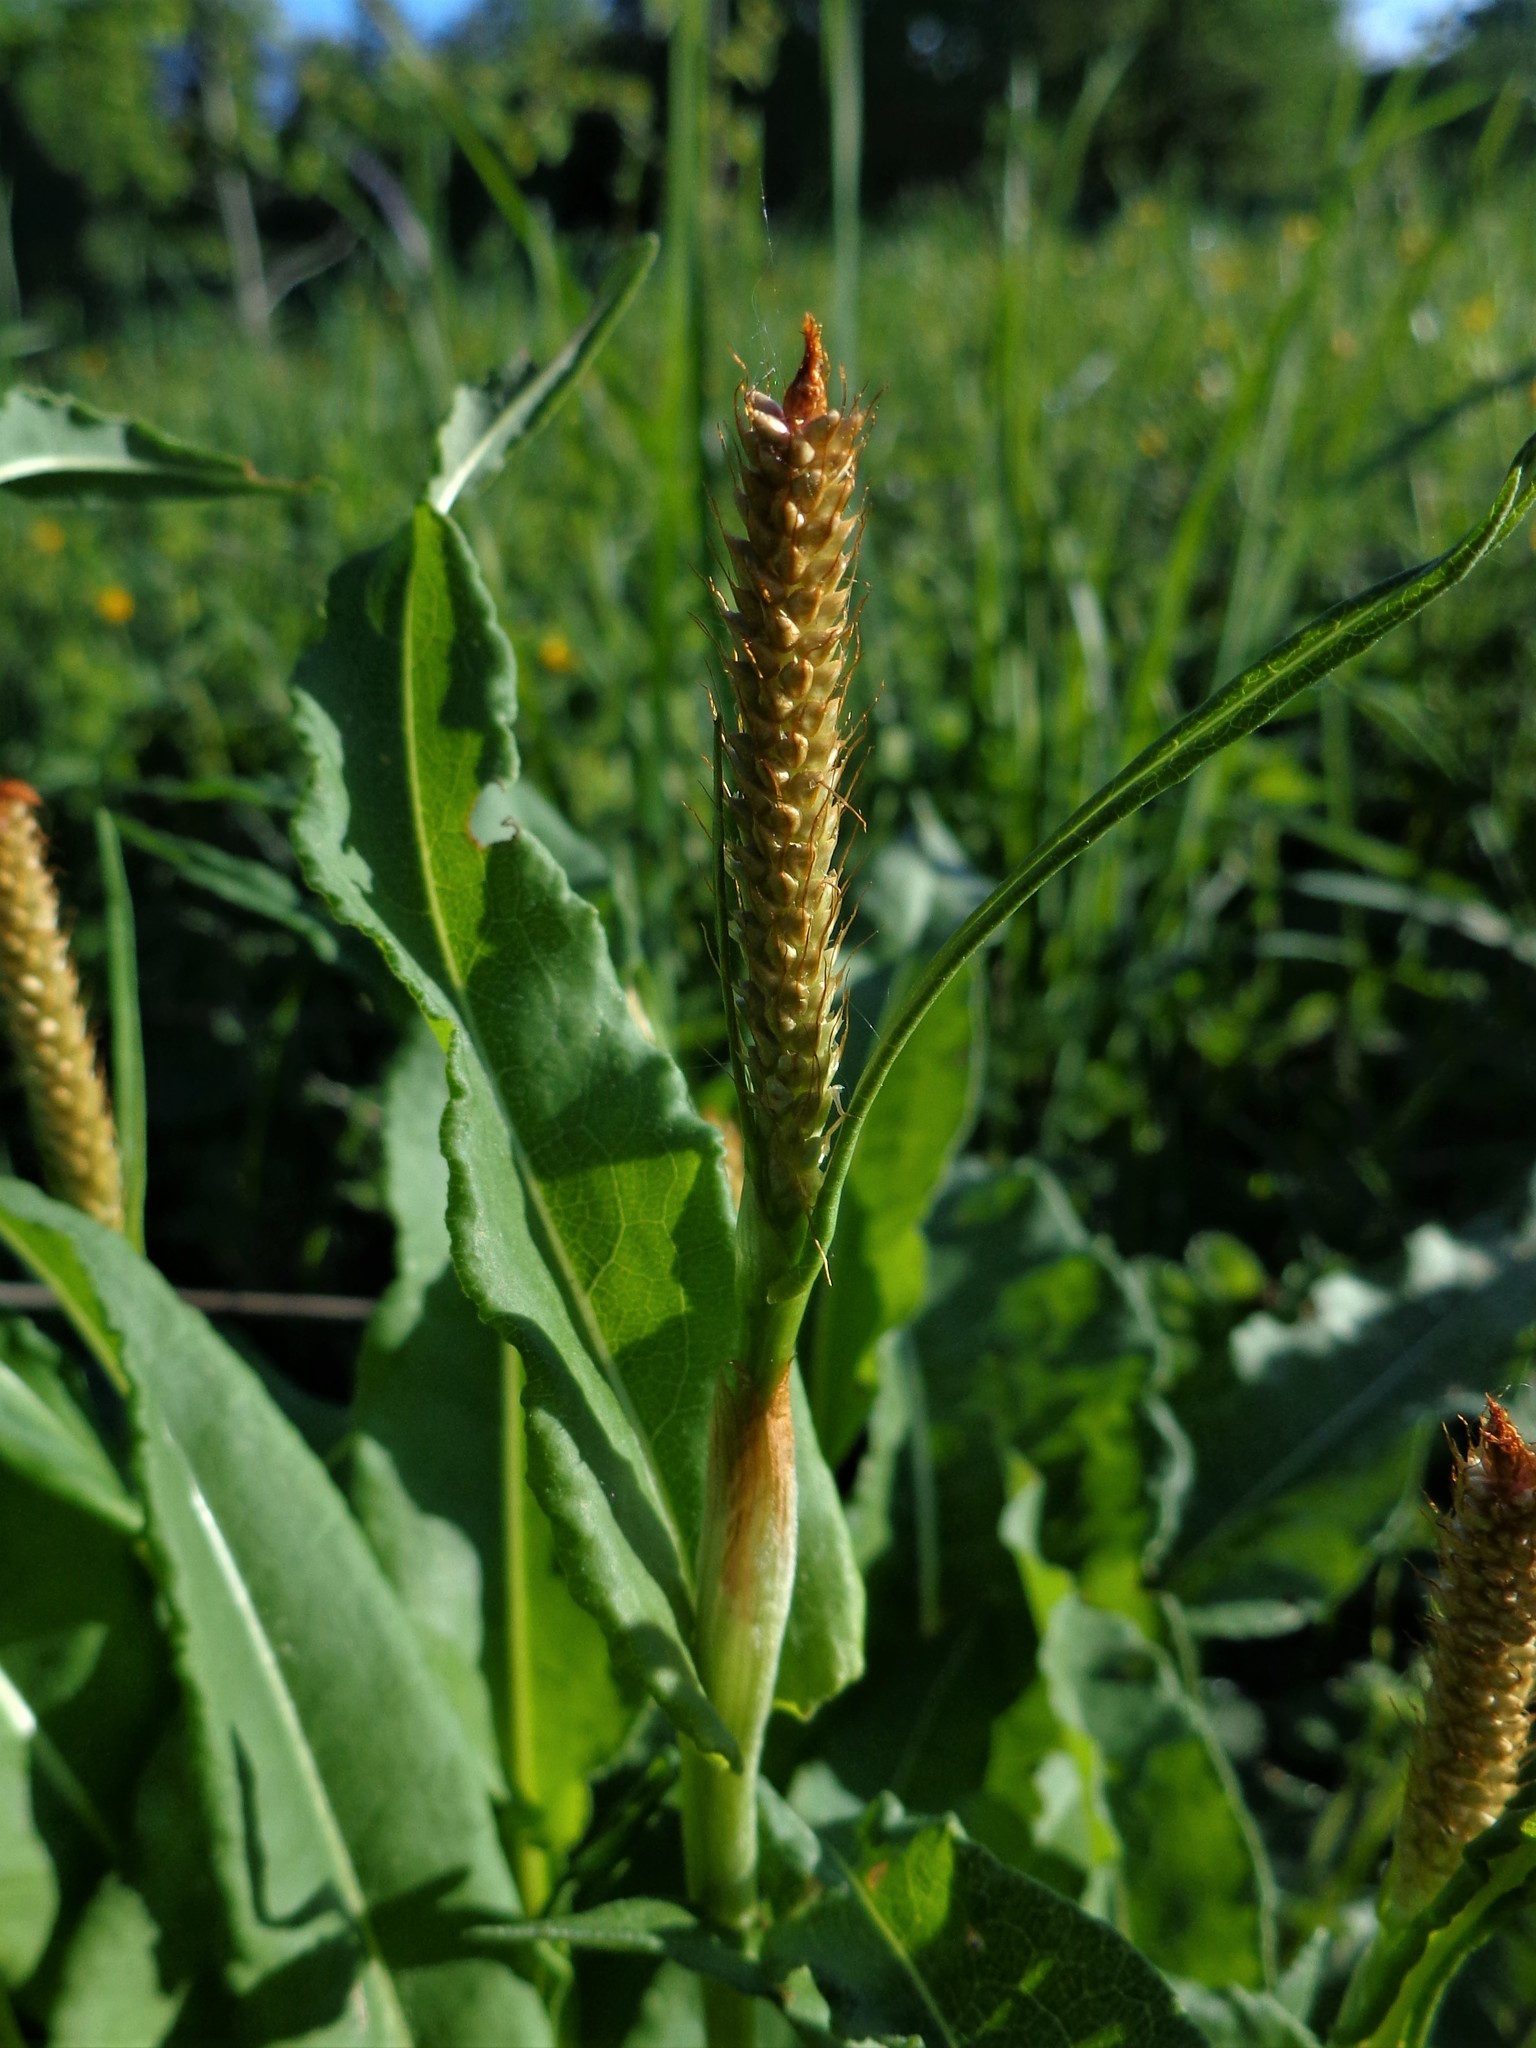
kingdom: Plantae
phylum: Tracheophyta
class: Magnoliopsida
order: Caryophyllales
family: Polygonaceae
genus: Bistorta
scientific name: Bistorta officinalis
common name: Common bistort
